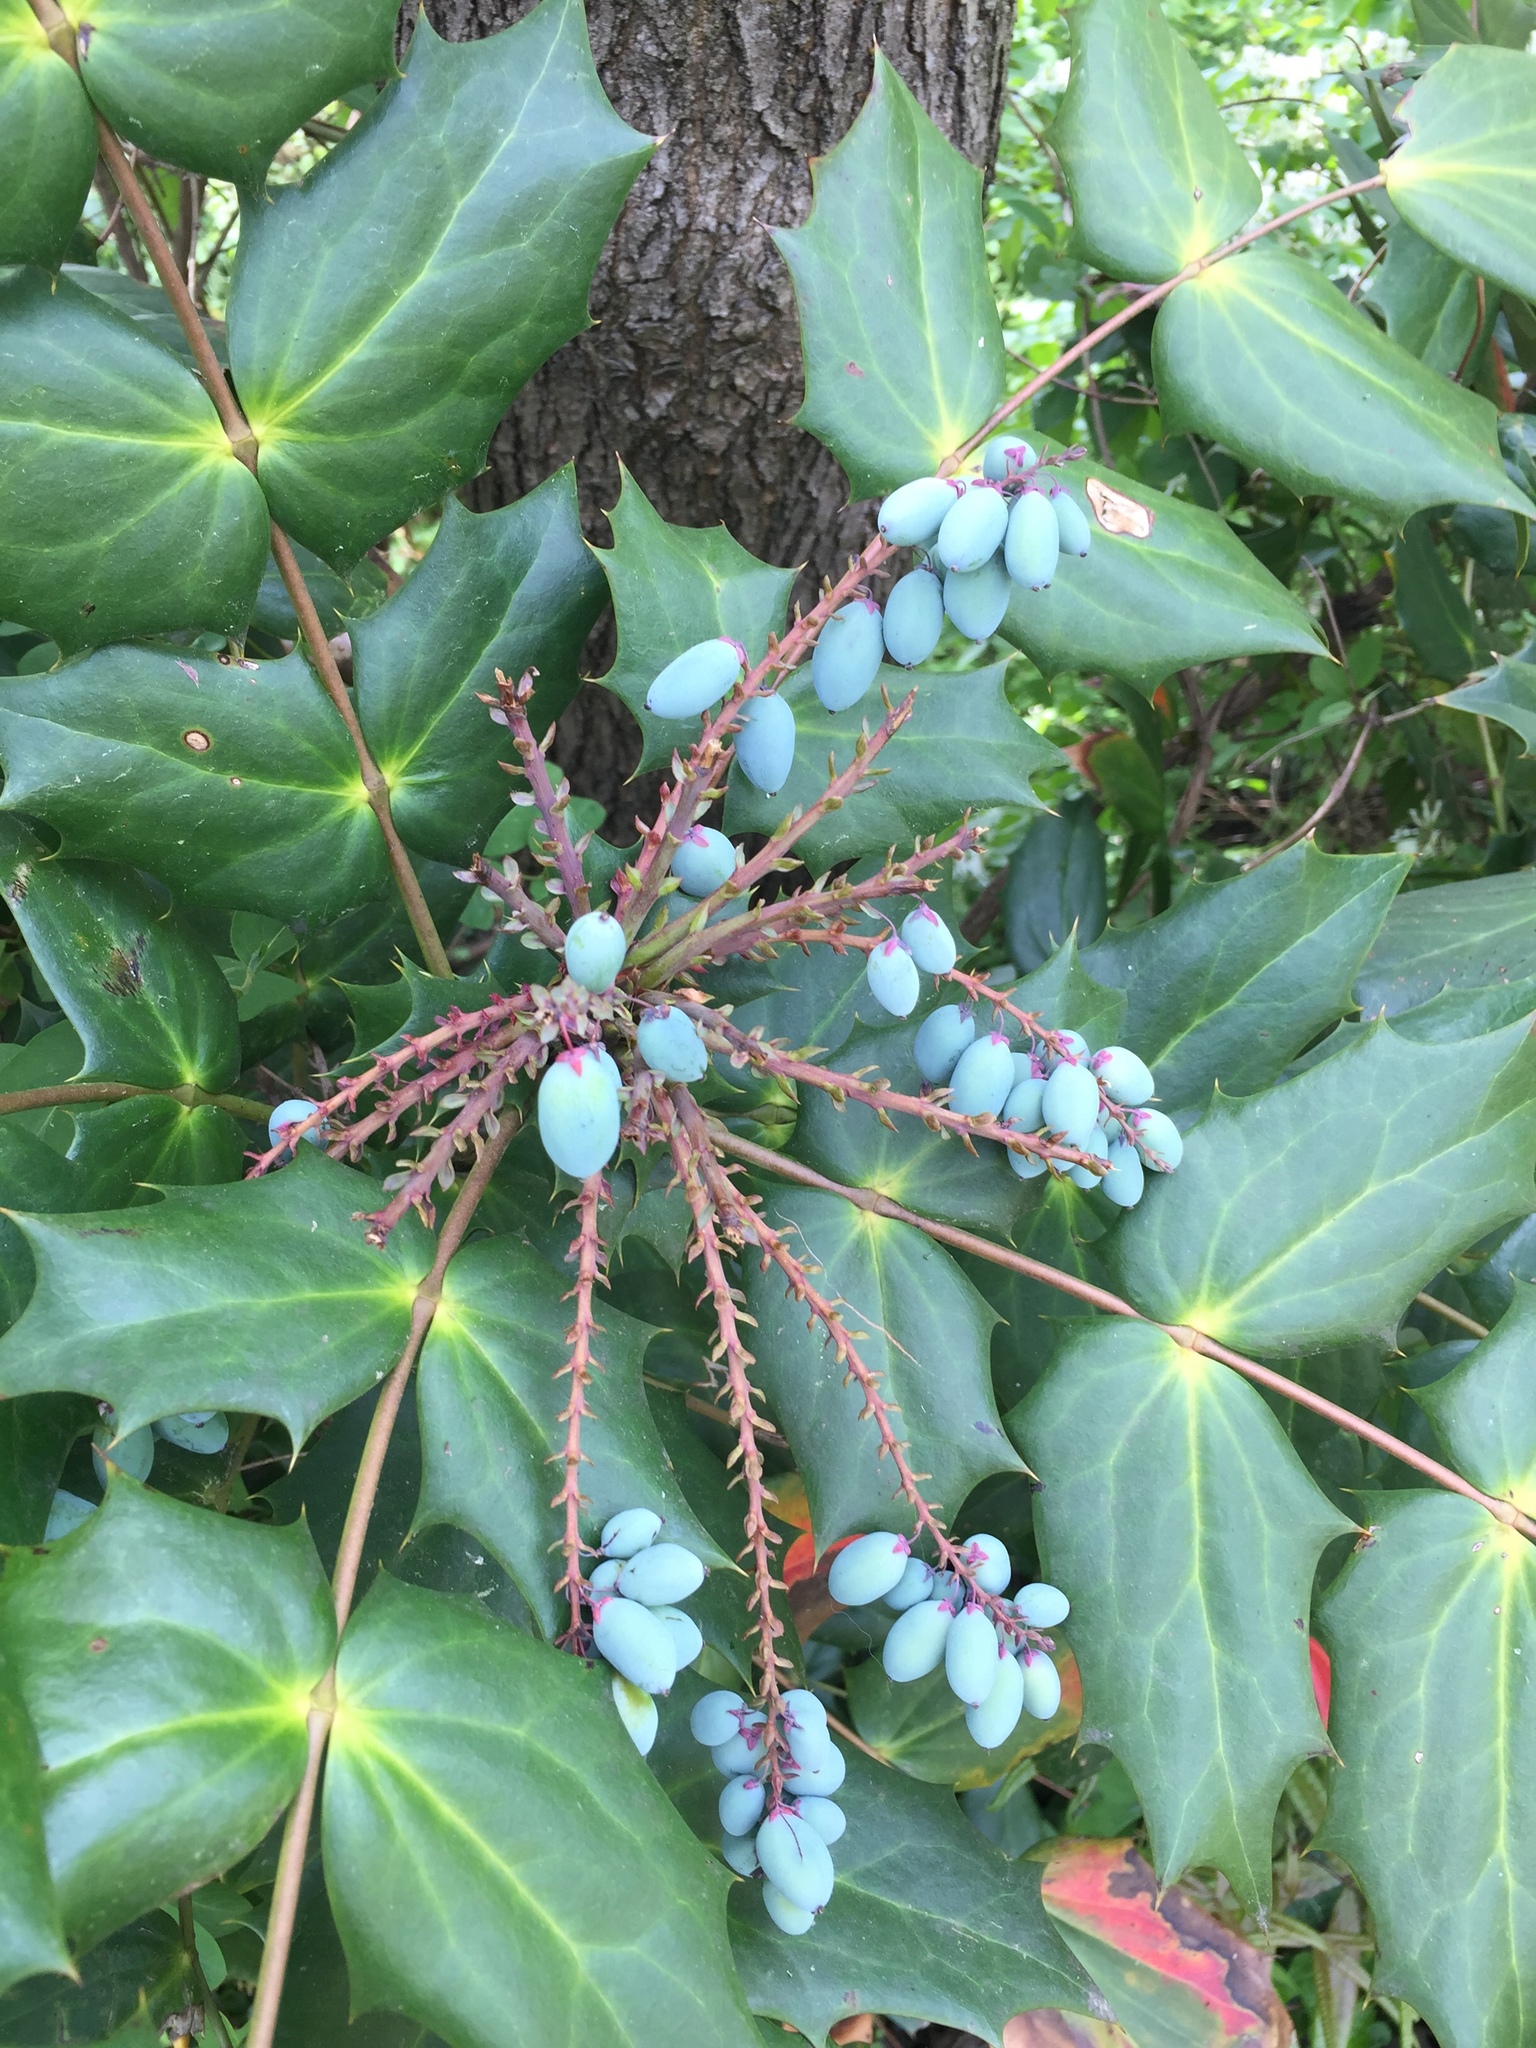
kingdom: Plantae
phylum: Tracheophyta
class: Magnoliopsida
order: Ranunculales
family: Berberidaceae
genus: Mahonia
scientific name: Mahonia bealei
